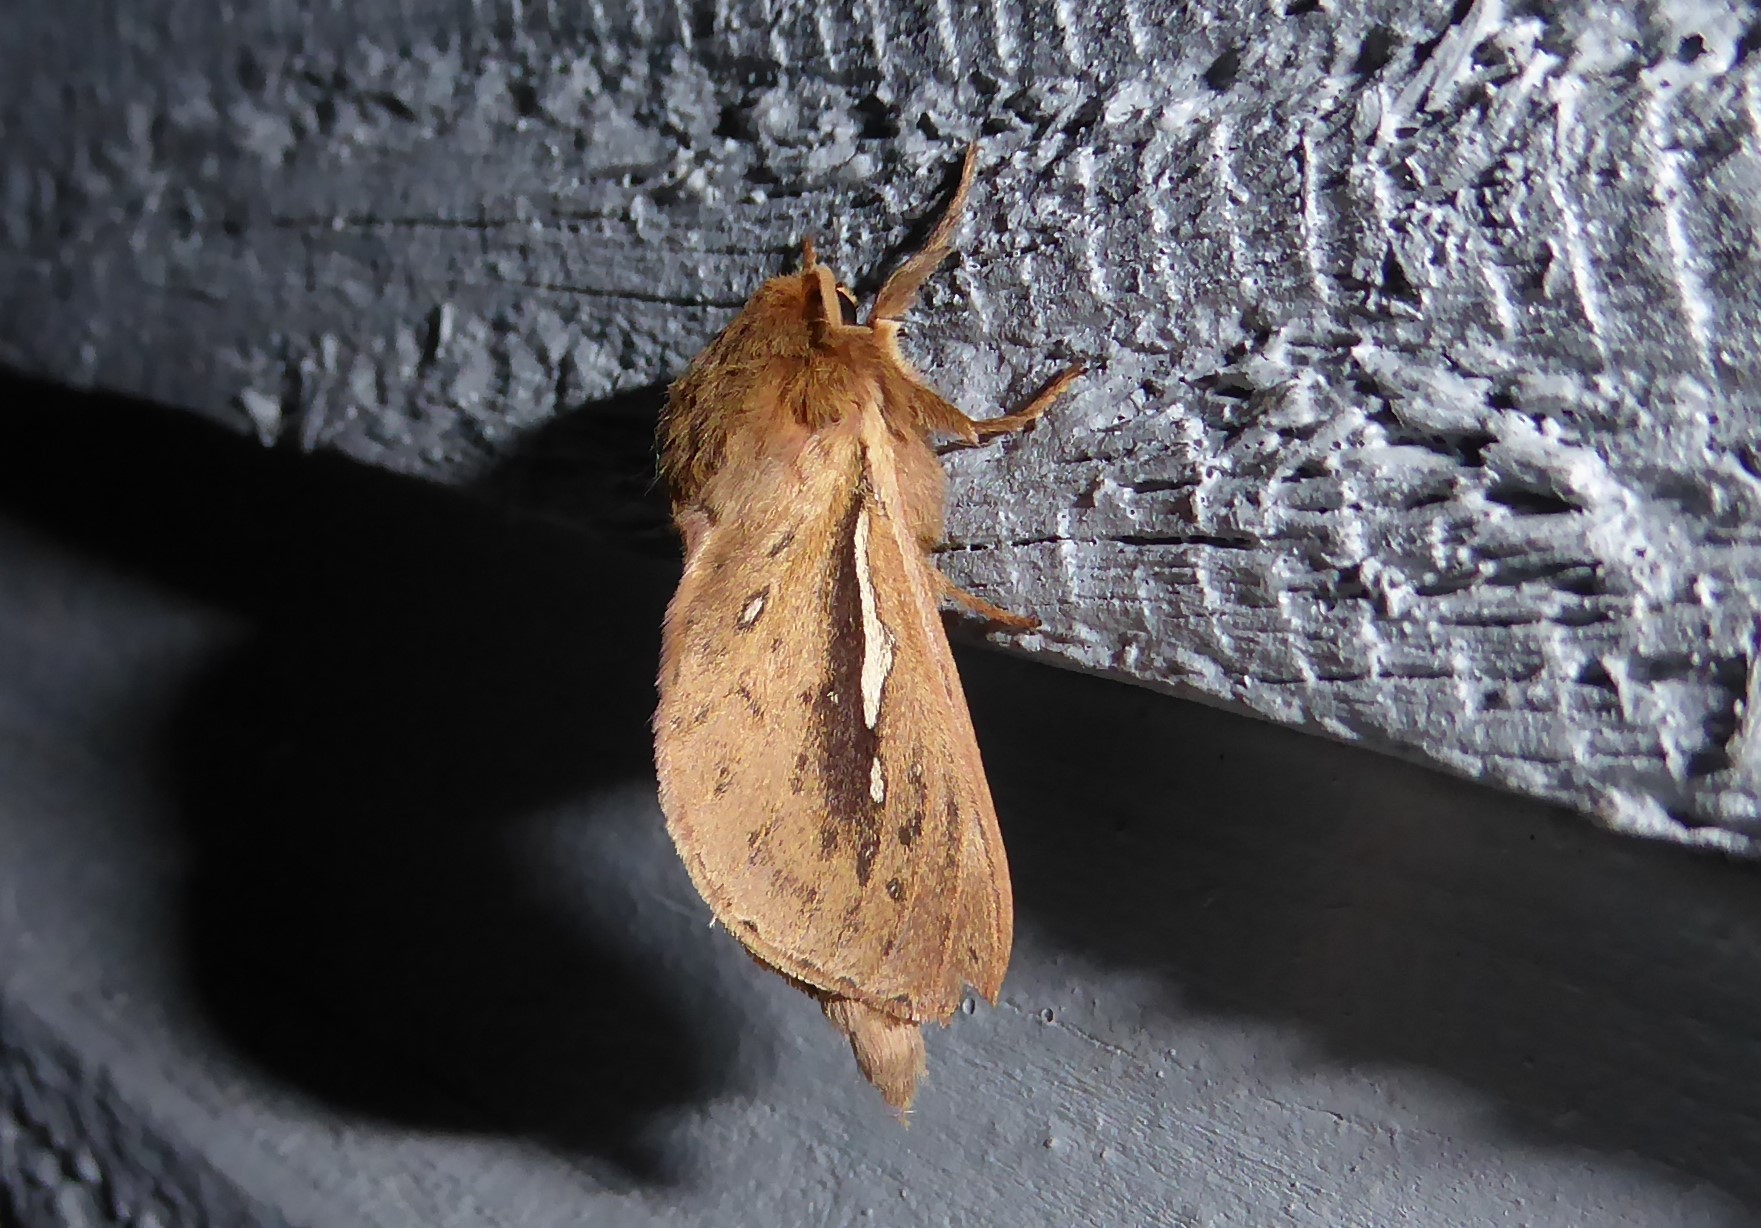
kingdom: Animalia
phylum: Arthropoda
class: Insecta
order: Lepidoptera
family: Hepialidae
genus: Wiseana
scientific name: Wiseana umbraculatus
